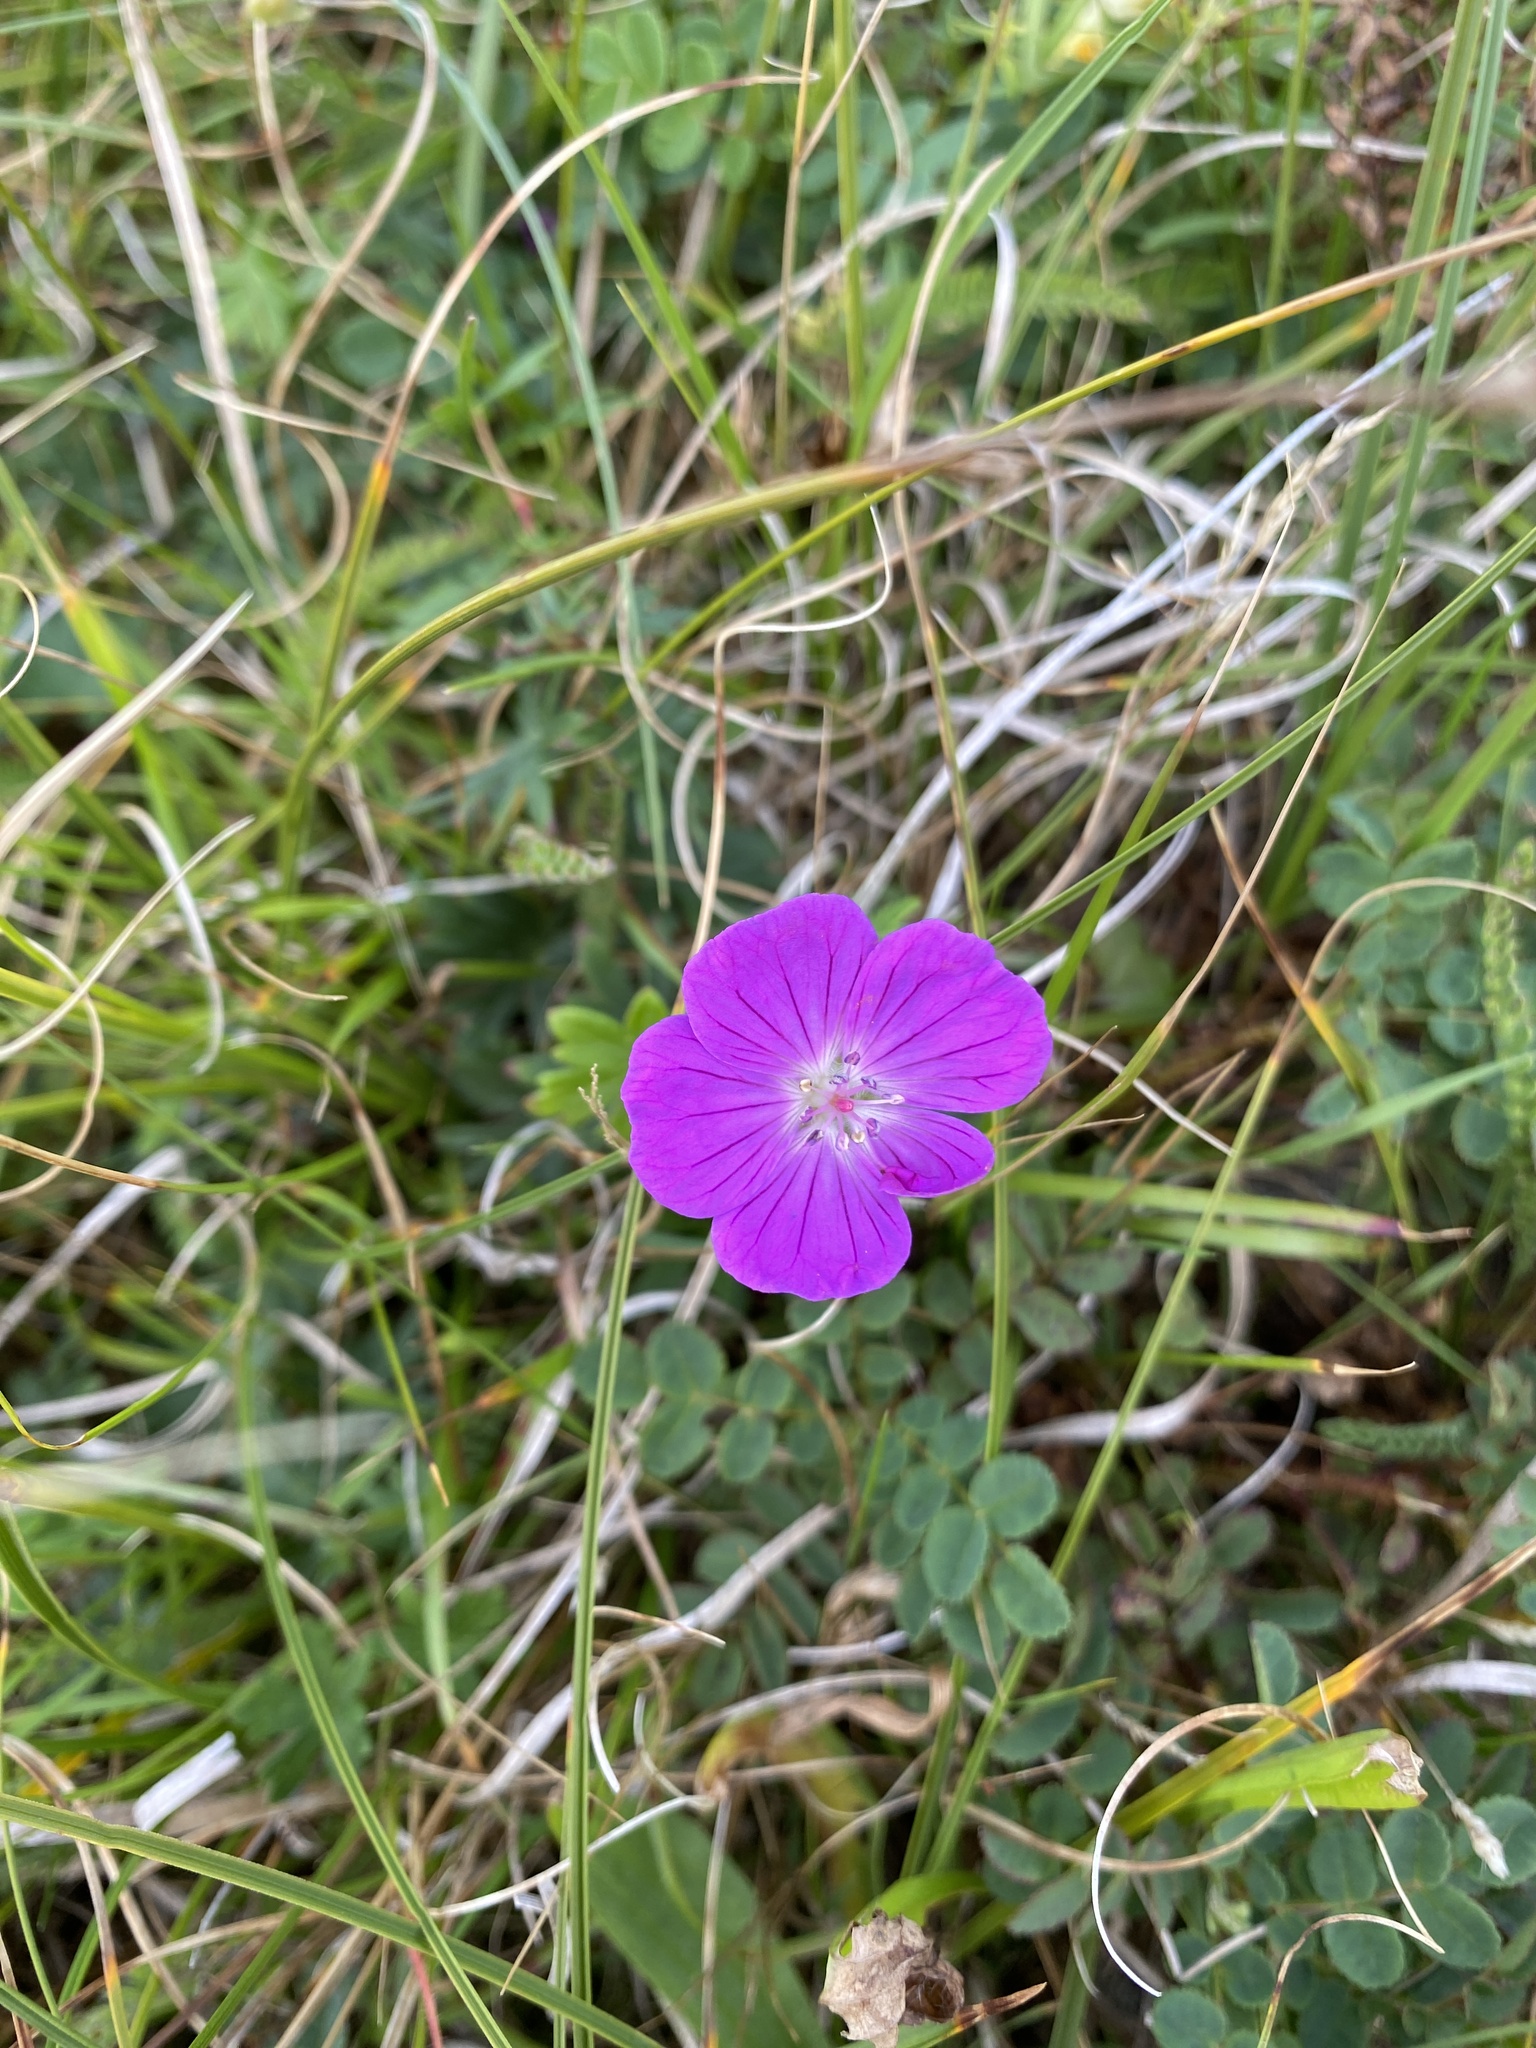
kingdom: Plantae
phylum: Tracheophyta
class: Magnoliopsida
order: Geraniales
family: Geraniaceae
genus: Geranium
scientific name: Geranium sanguineum
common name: Bloody crane's-bill
